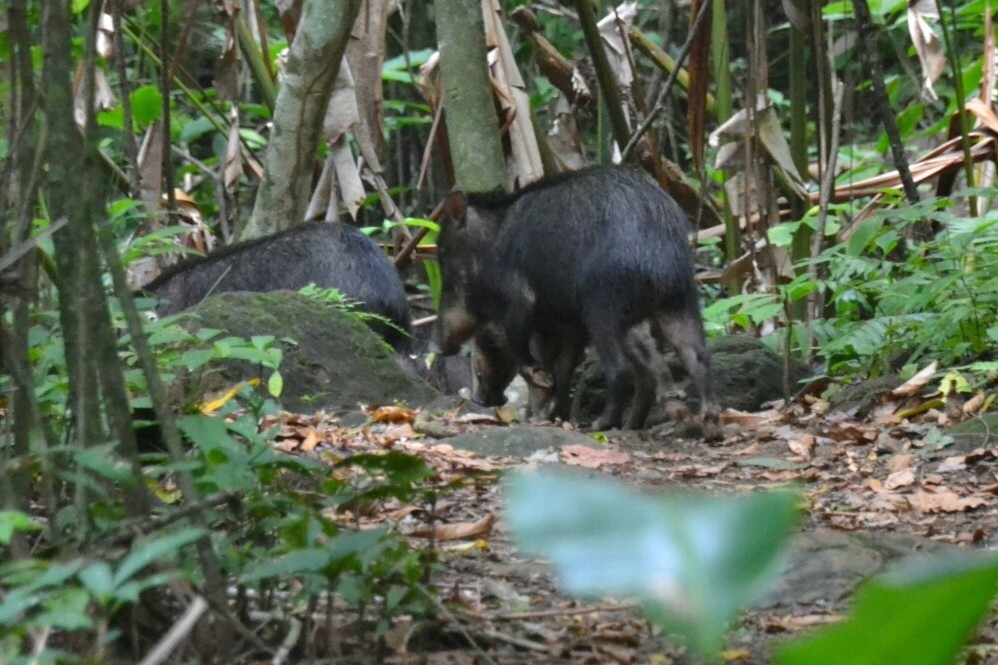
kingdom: Animalia
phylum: Chordata
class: Mammalia
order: Artiodactyla
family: Tayassuidae
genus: Tayassu
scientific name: Tayassu pecari
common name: White-lipped peccary
